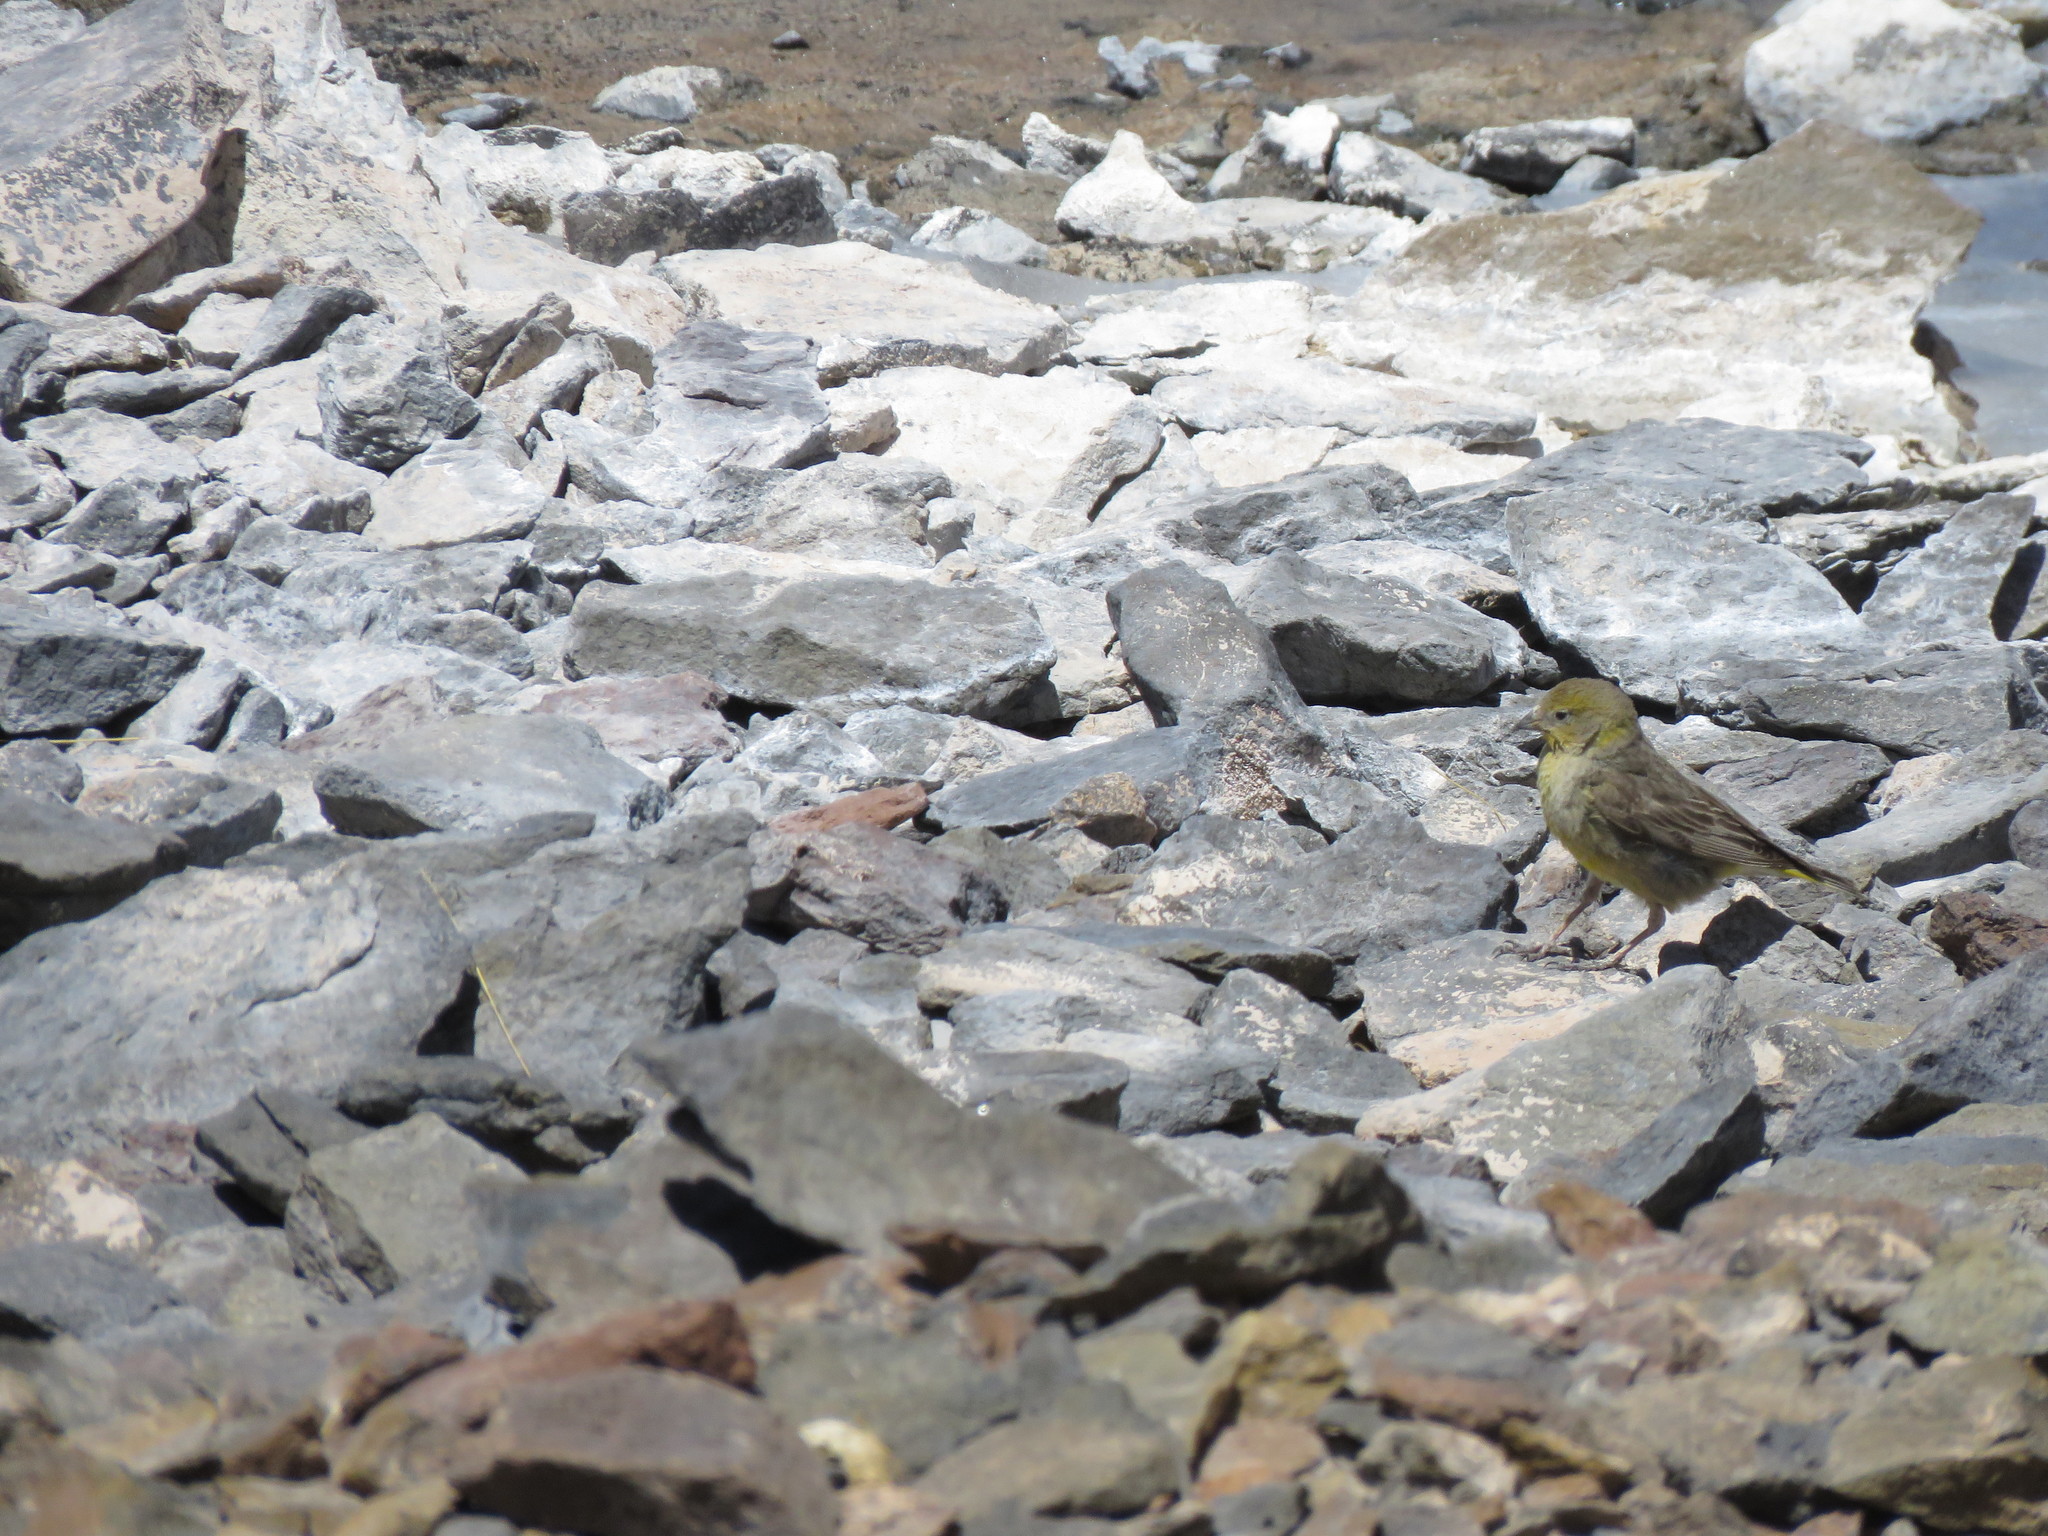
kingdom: Animalia
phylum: Chordata
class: Aves
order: Passeriformes
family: Thraupidae
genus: Sicalis
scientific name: Sicalis olivascens
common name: Greenish yellow finch
